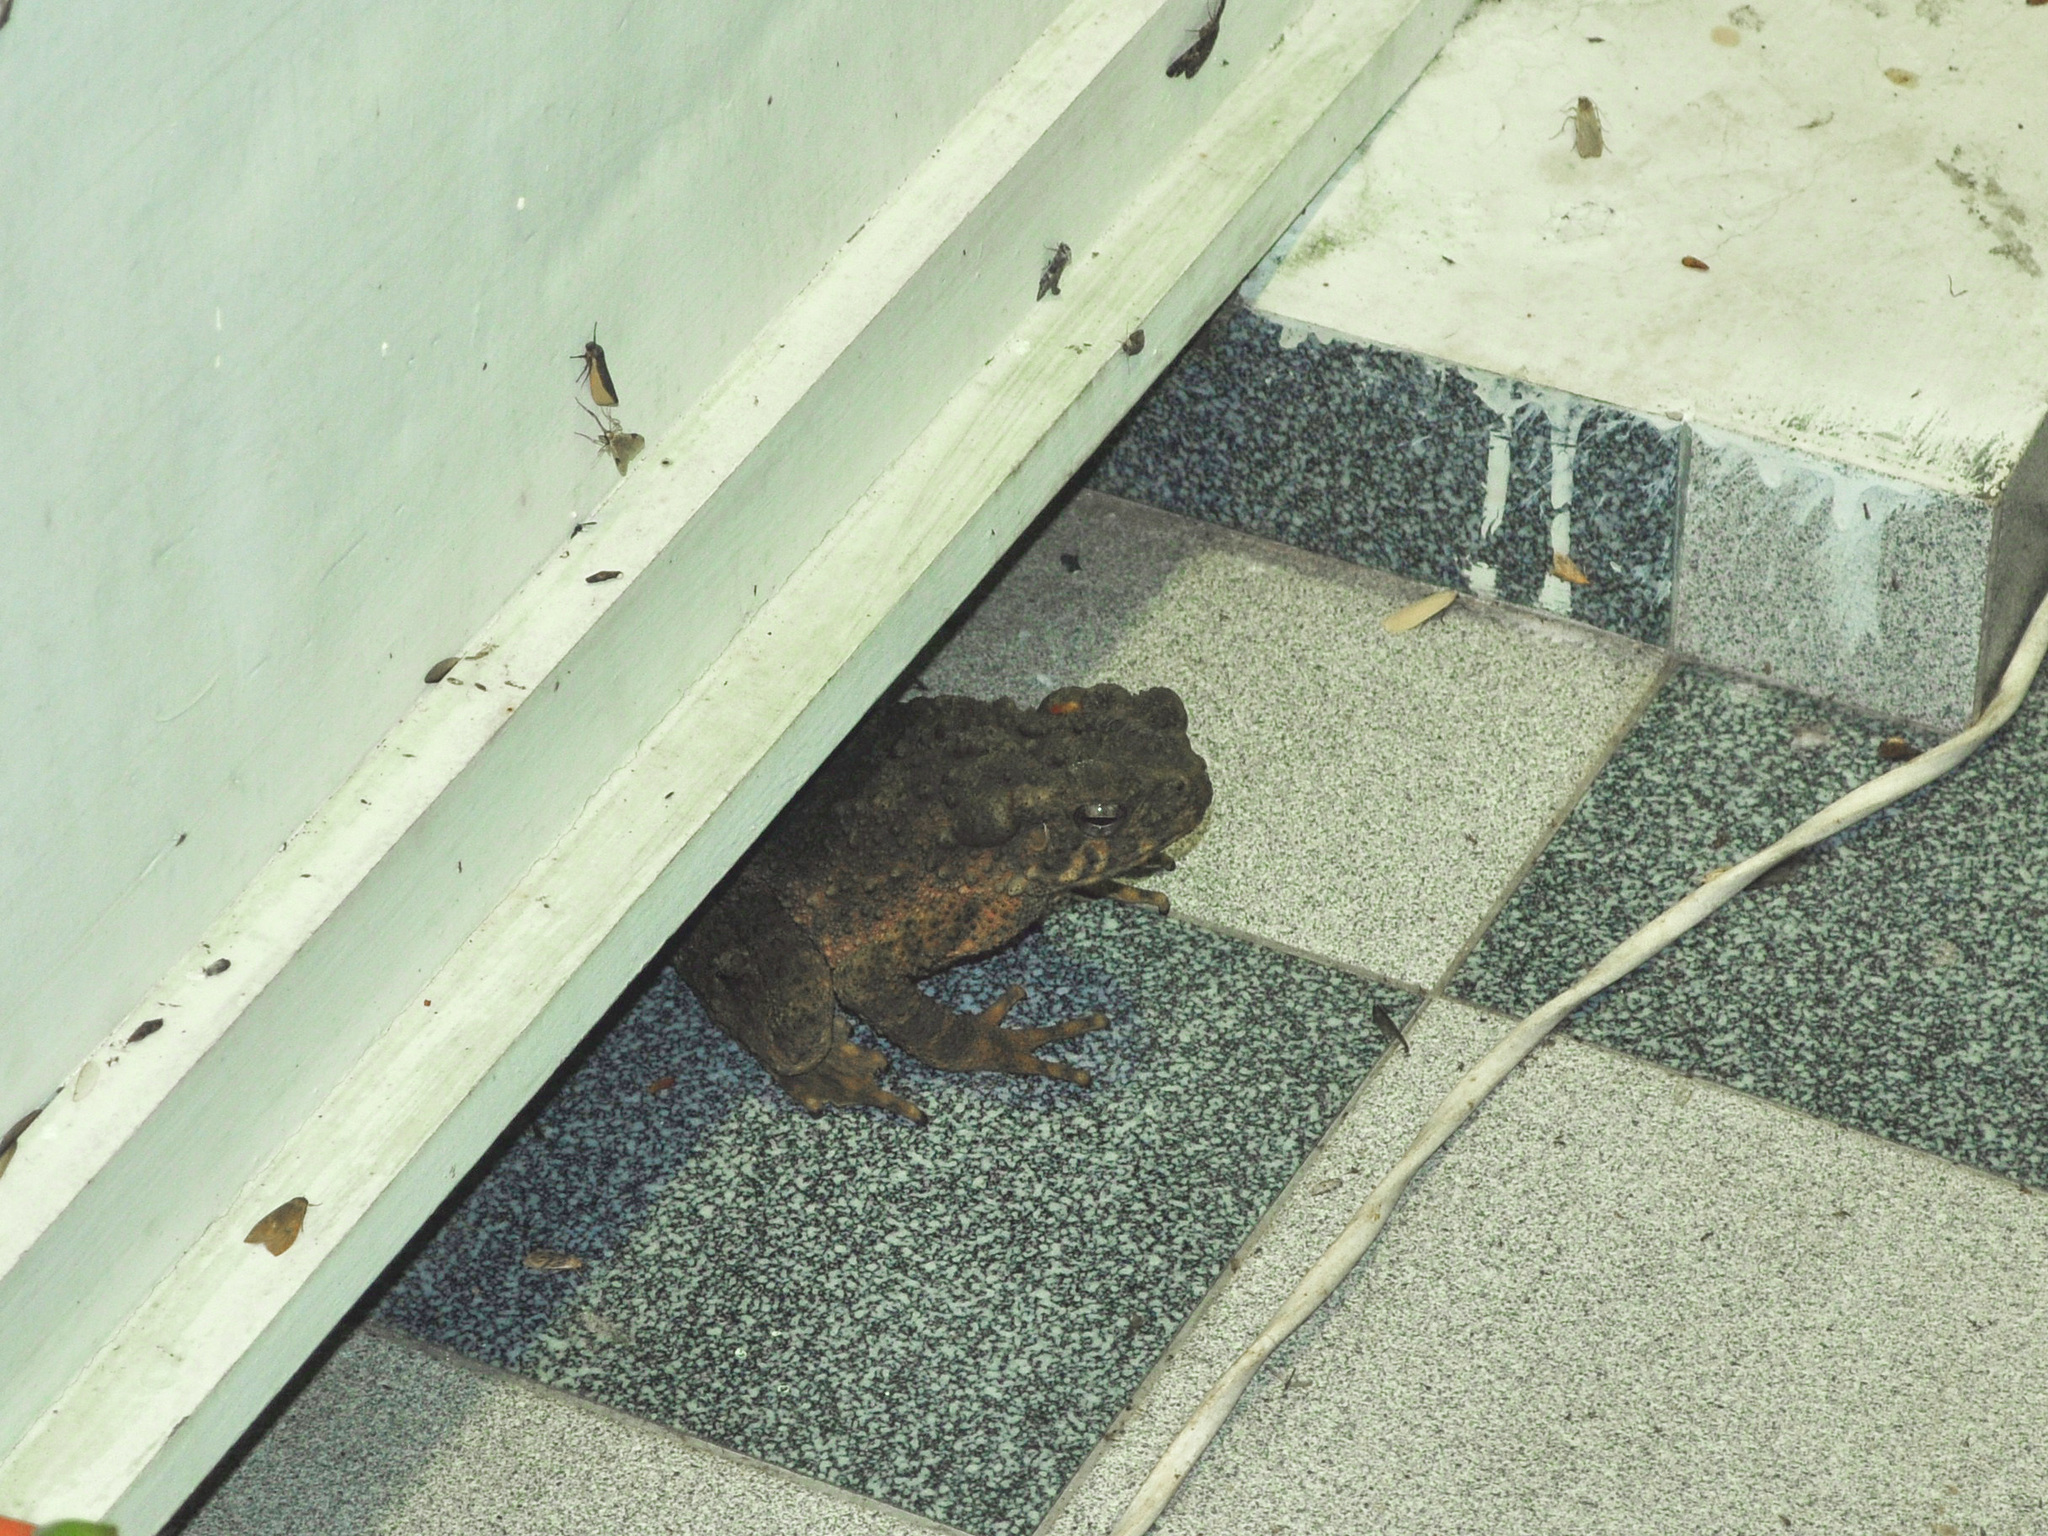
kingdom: Animalia
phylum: Chordata
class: Amphibia
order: Anura
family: Bufonidae
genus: Phrynoidis
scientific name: Phrynoidis asper
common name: Asian giant toad
